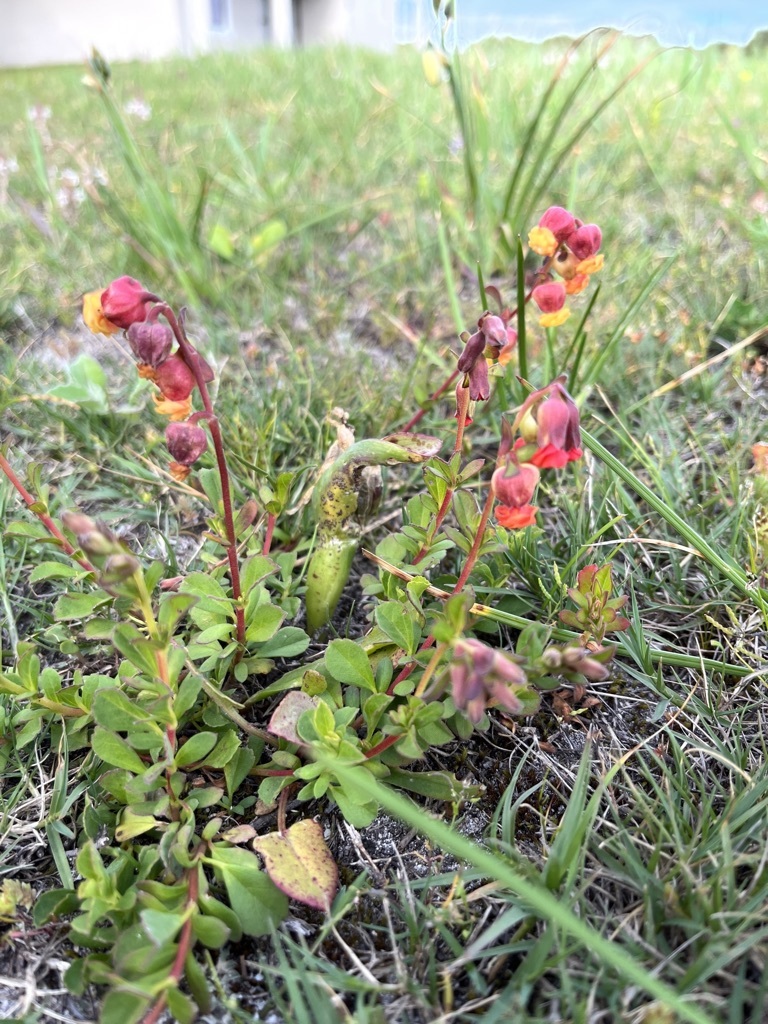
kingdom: Plantae
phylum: Tracheophyta
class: Magnoliopsida
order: Malvales
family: Malvaceae
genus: Hermannia
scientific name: Hermannia ternifolia
